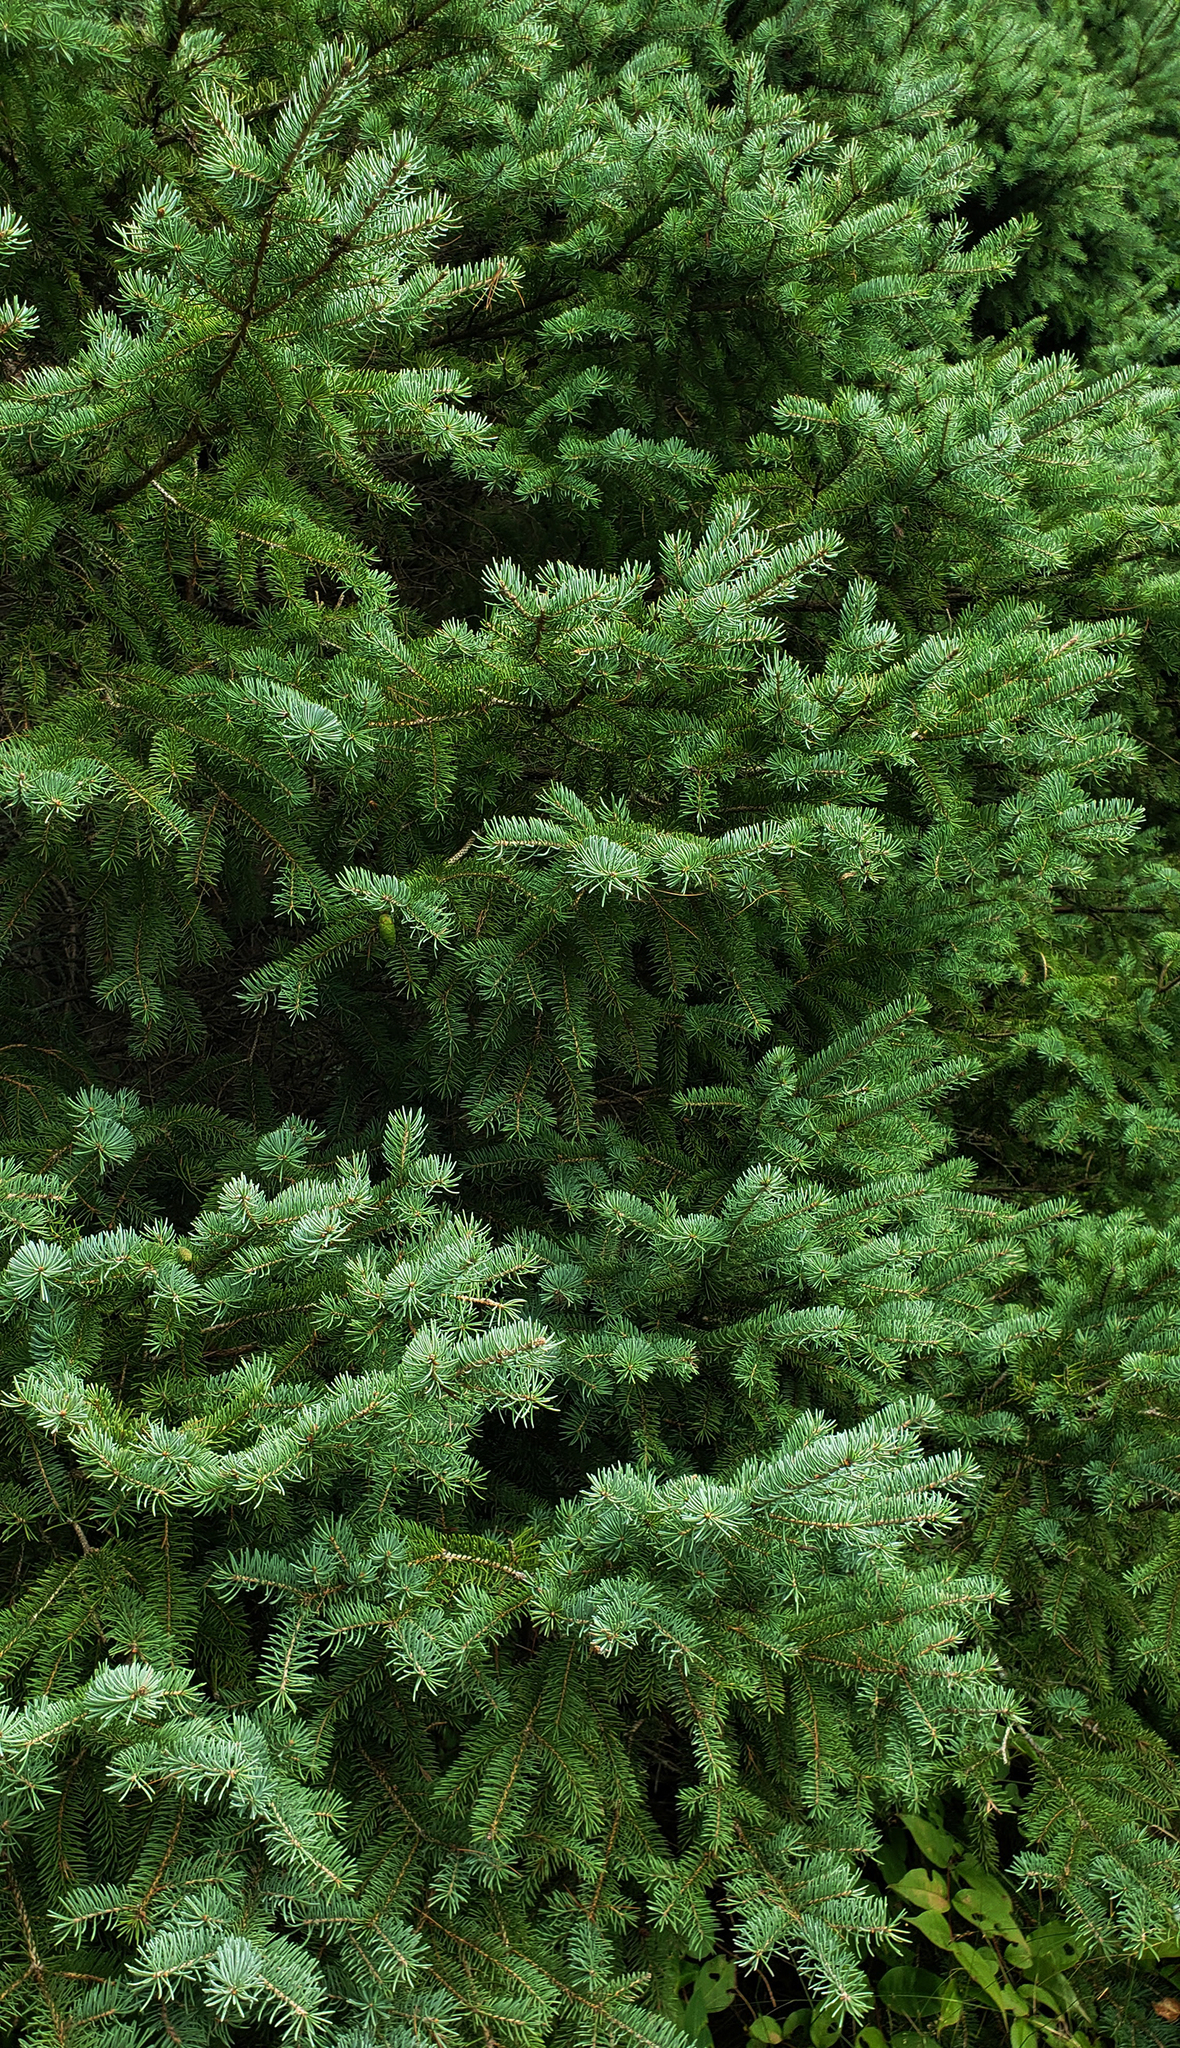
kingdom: Plantae
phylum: Tracheophyta
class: Pinopsida
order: Pinales
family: Pinaceae
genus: Picea
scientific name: Picea glauca
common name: White spruce
